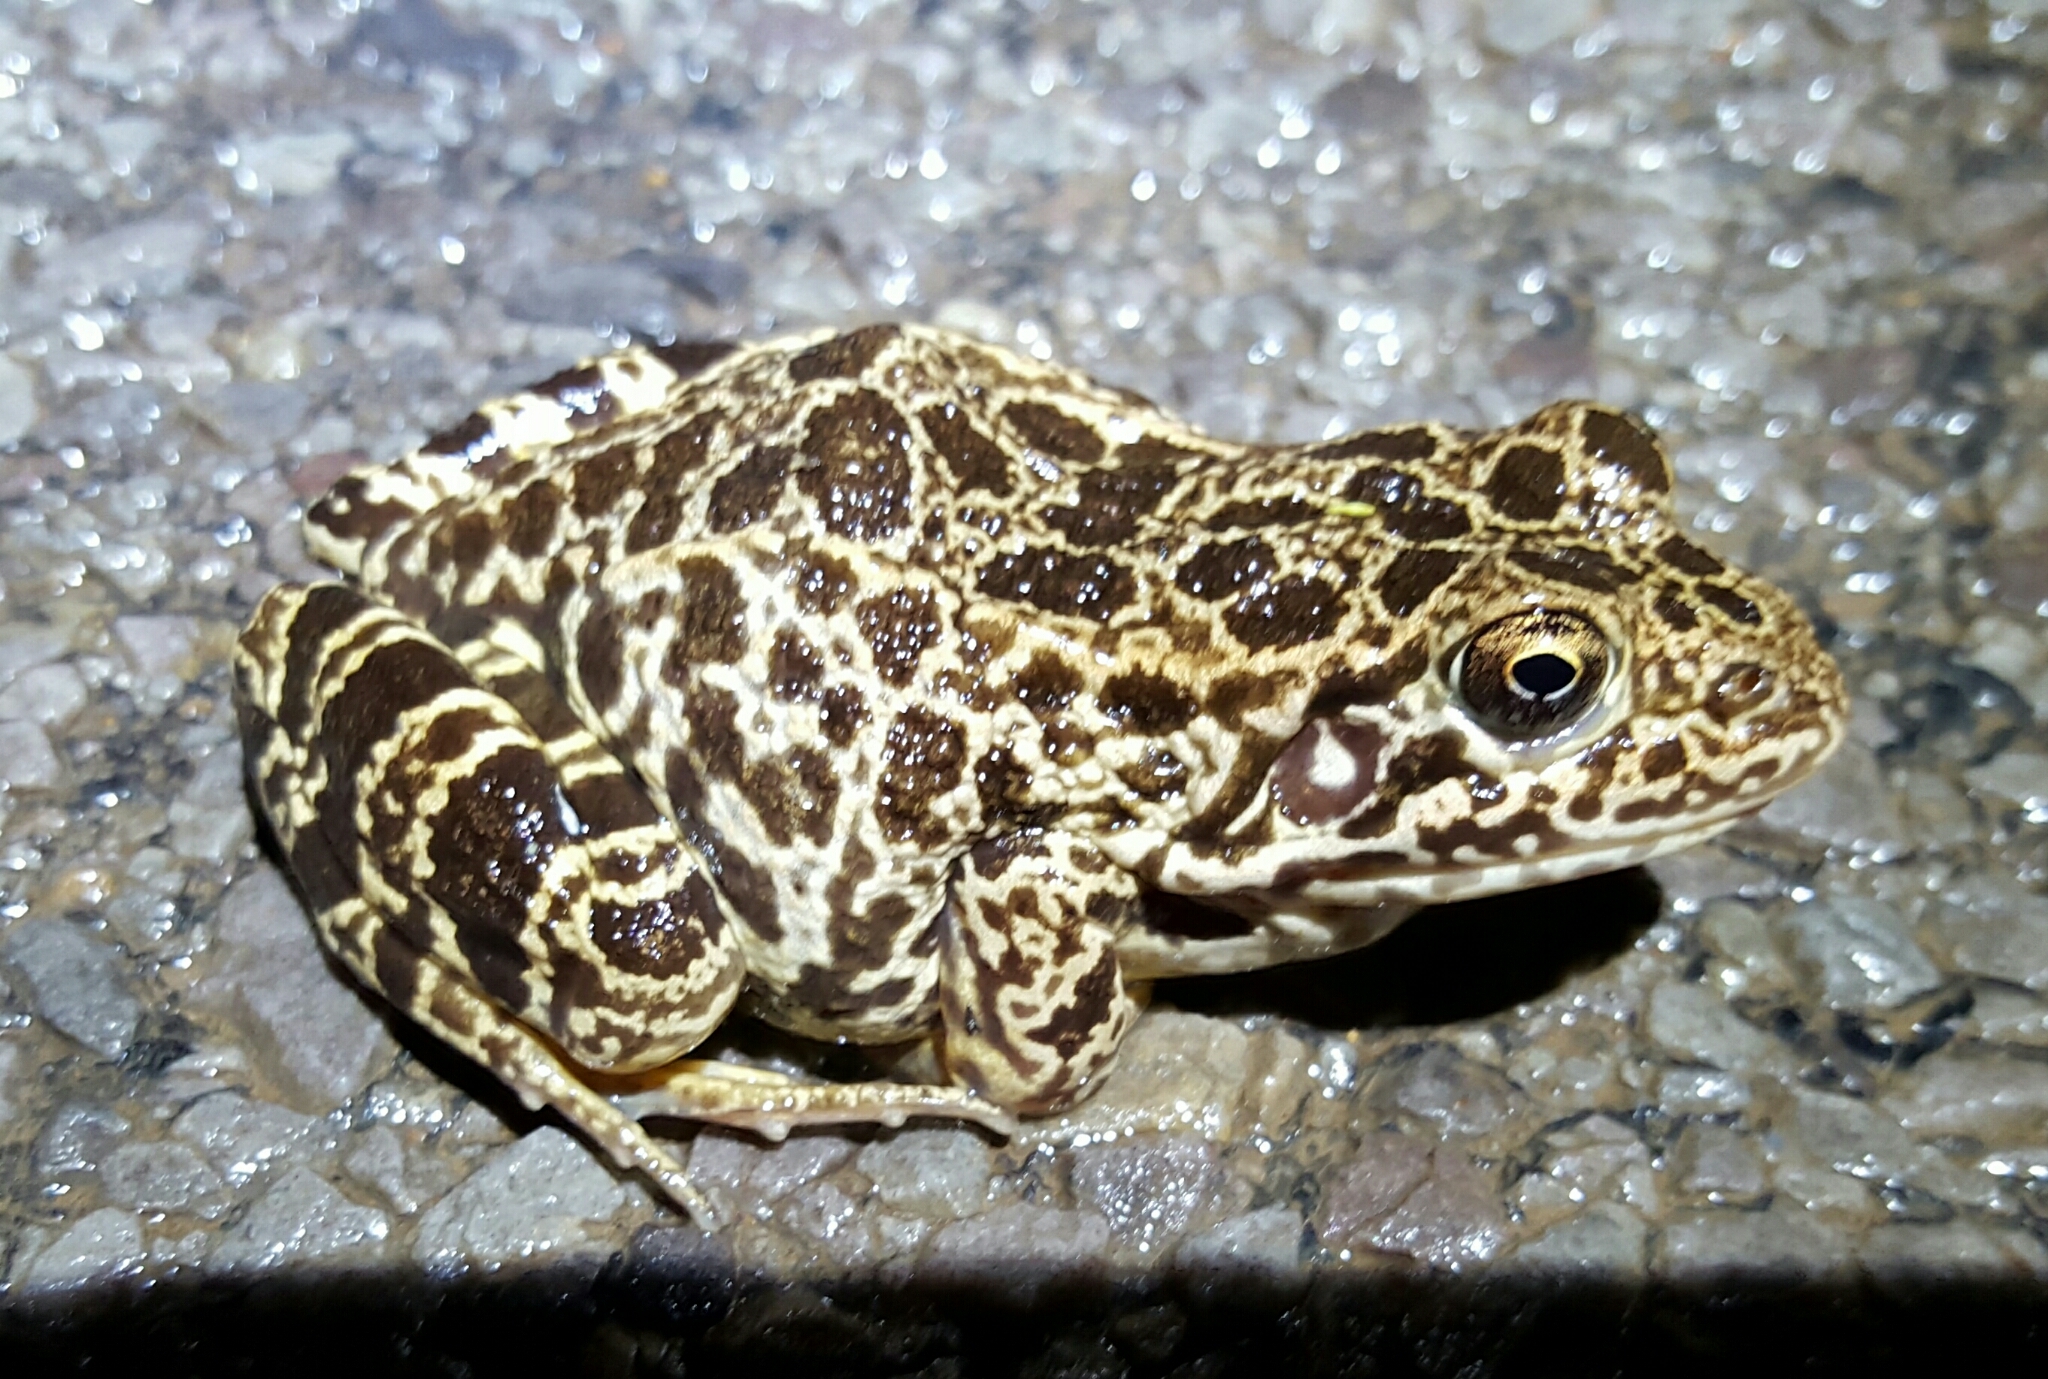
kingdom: Animalia
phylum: Chordata
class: Amphibia
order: Anura
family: Ranidae
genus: Lithobates
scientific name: Lithobates areolatus
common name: Crawfish frog
